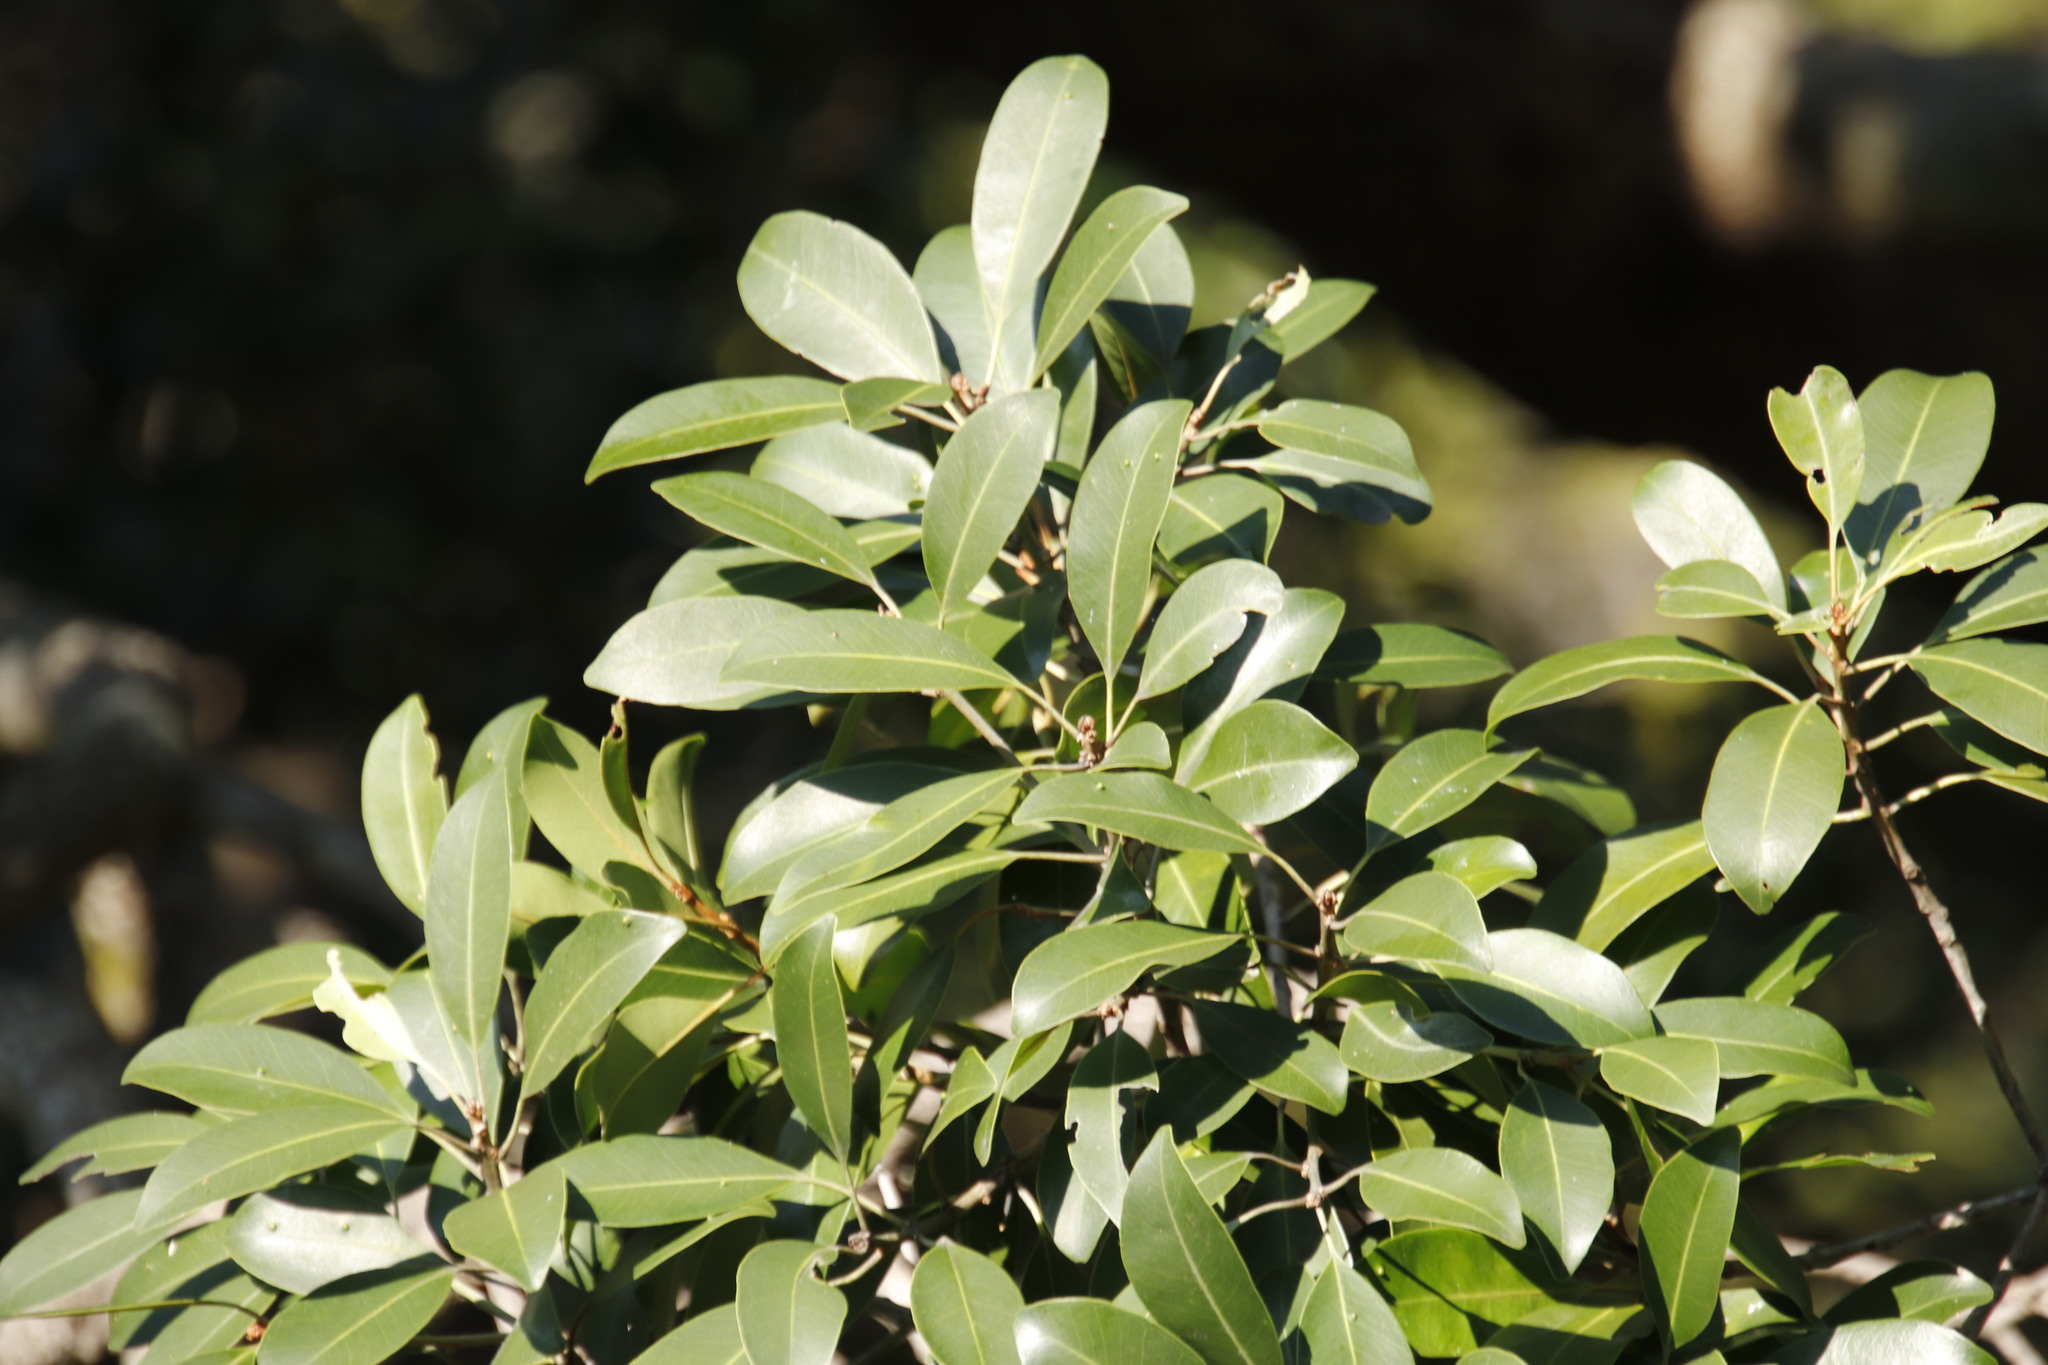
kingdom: Plantae
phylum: Tracheophyta
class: Magnoliopsida
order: Ericales
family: Sapotaceae
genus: Mimusops
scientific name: Mimusops zeyheri
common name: Transvaal red milkwood
